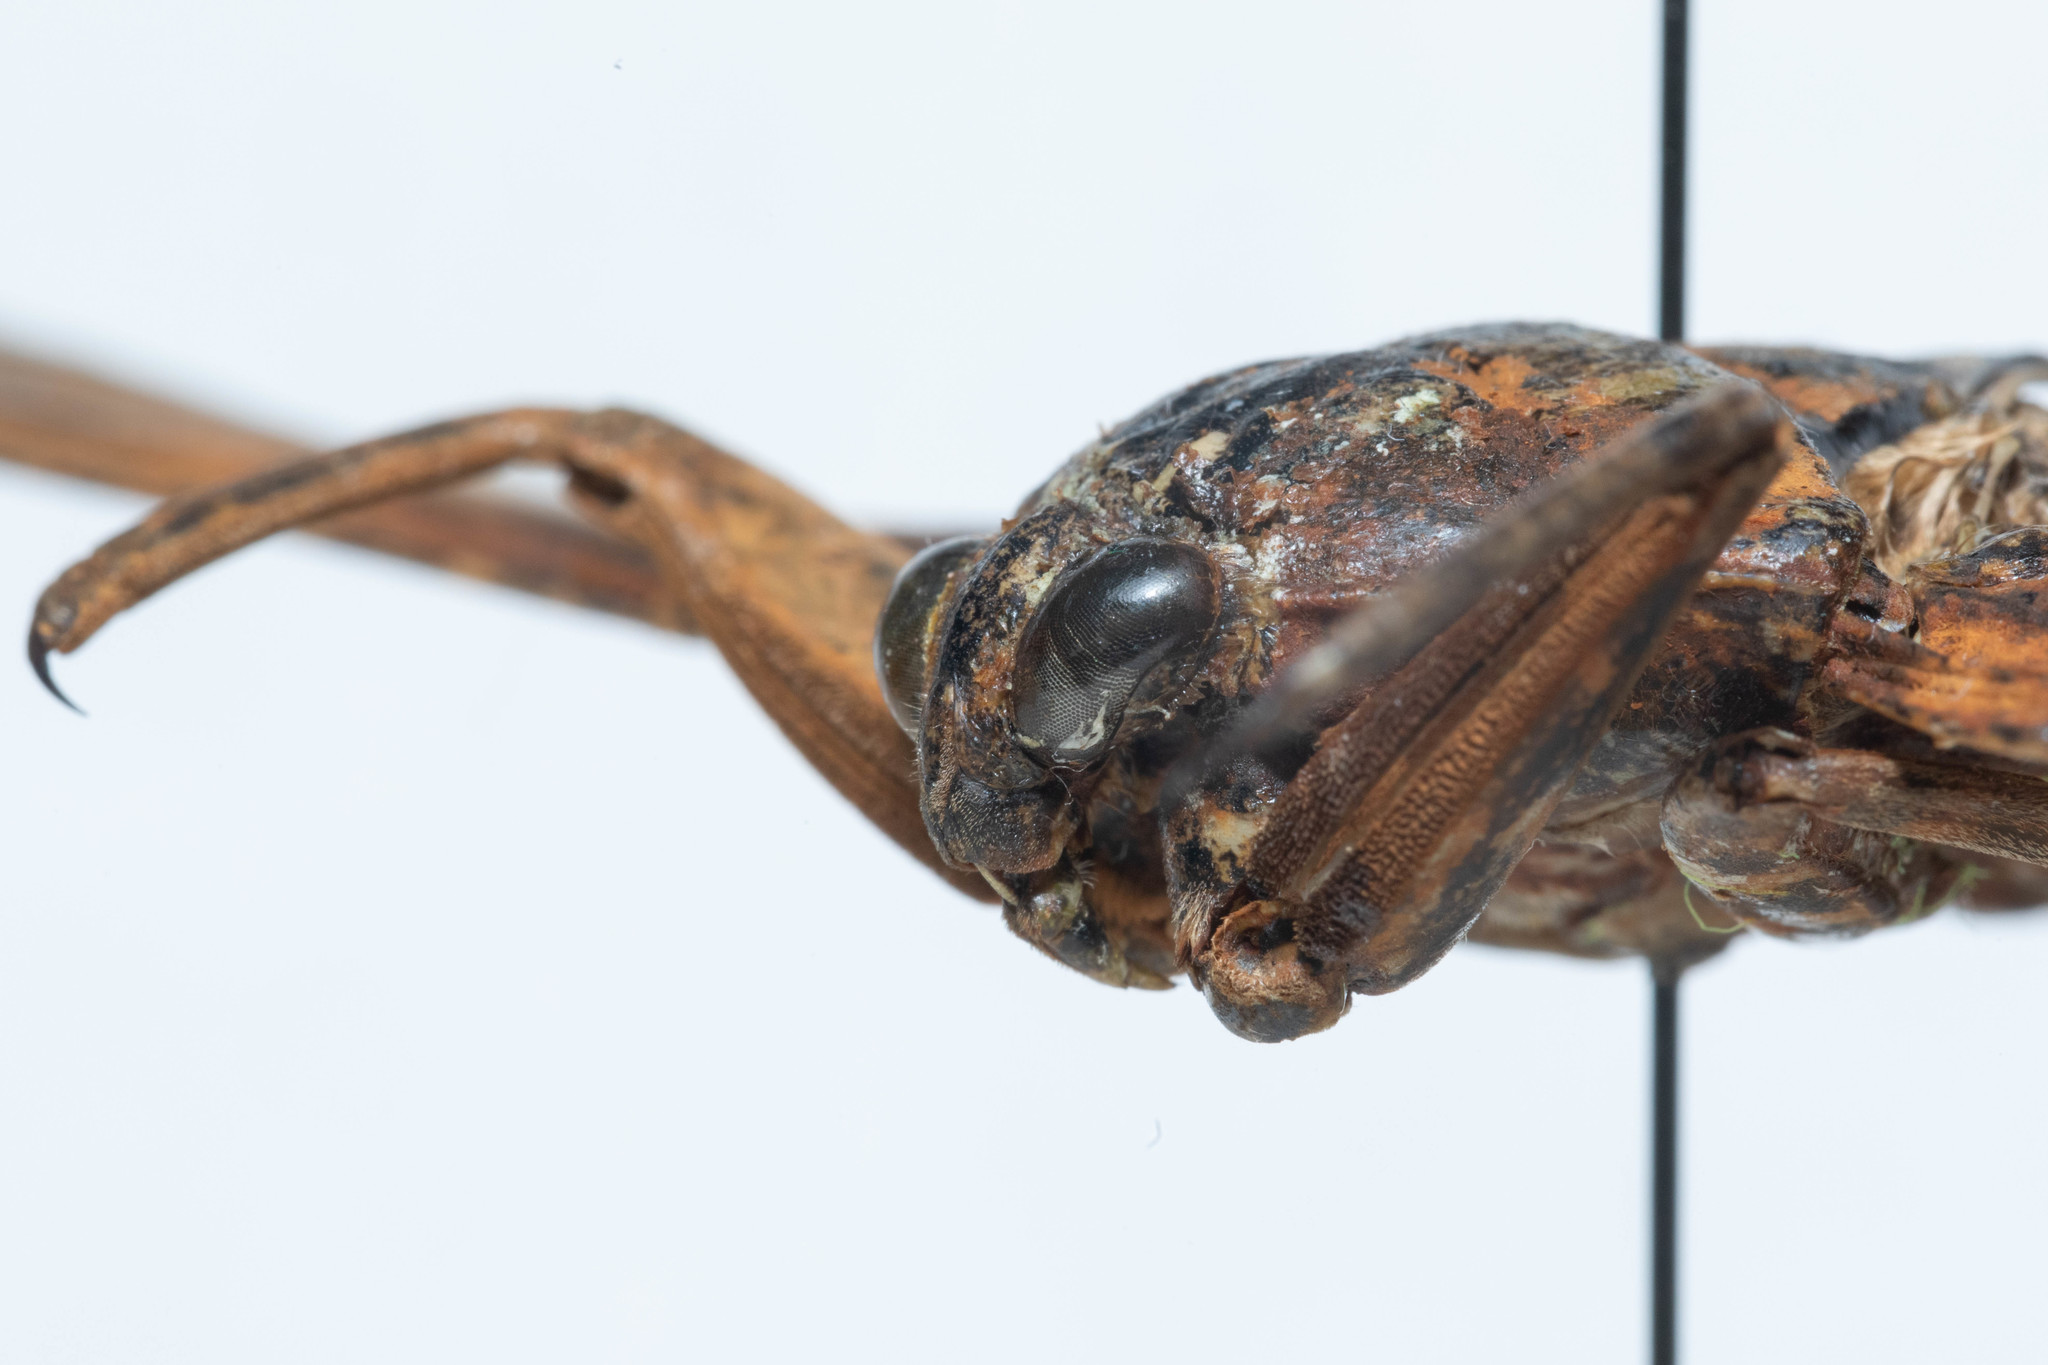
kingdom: Animalia
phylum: Arthropoda
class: Insecta
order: Hemiptera
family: Belostomatidae
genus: Lethocerus
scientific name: Lethocerus americanus
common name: Giant water bug
